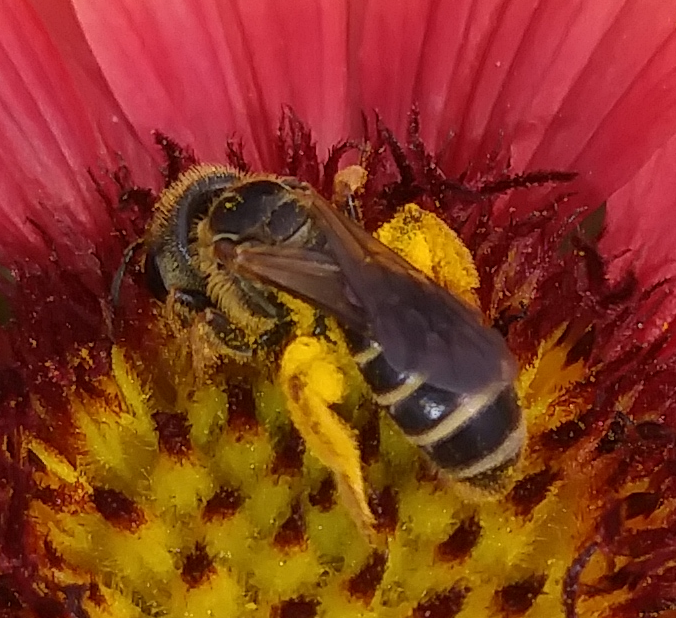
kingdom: Animalia
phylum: Arthropoda
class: Insecta
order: Hymenoptera
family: Halictidae
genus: Halictus
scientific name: Halictus poeyi
